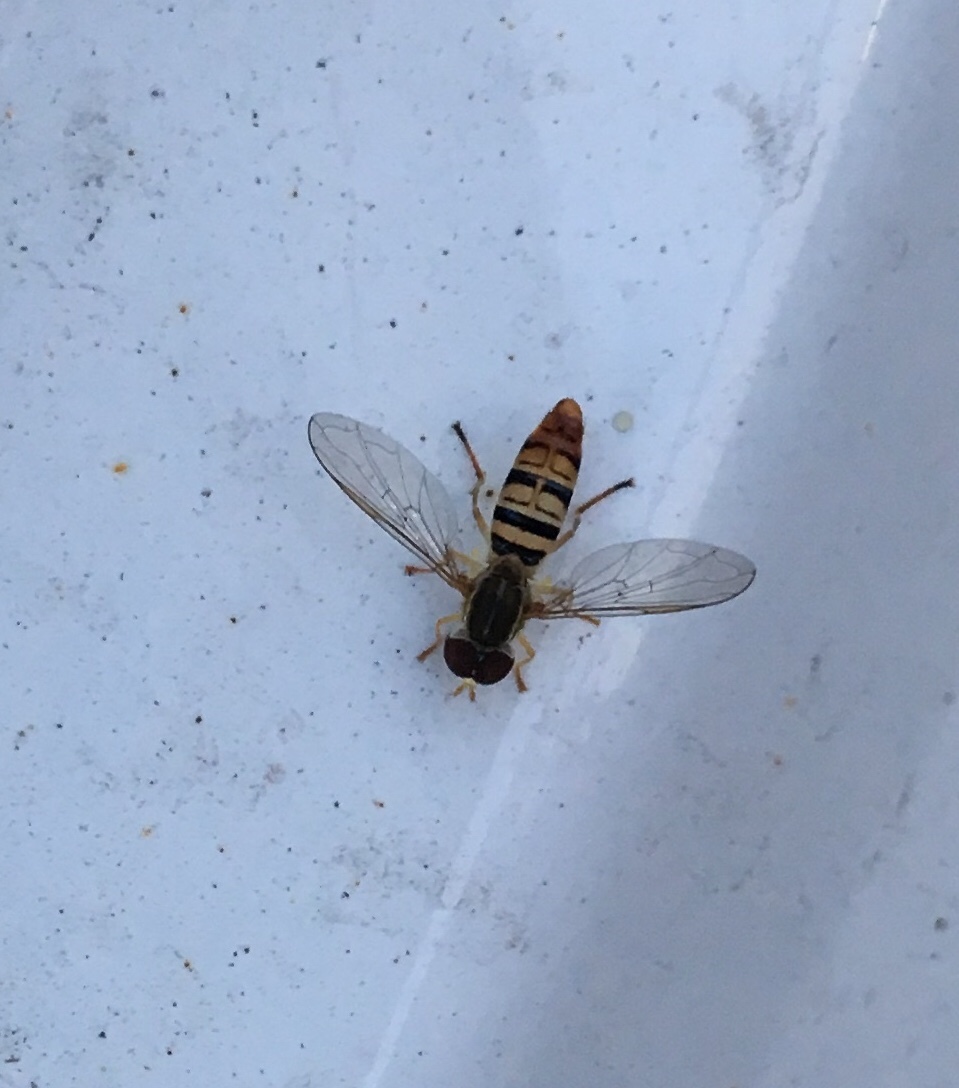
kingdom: Animalia
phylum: Arthropoda
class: Insecta
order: Diptera
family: Syrphidae
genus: Toxomerus
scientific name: Toxomerus politus
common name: Maize calligrapher
